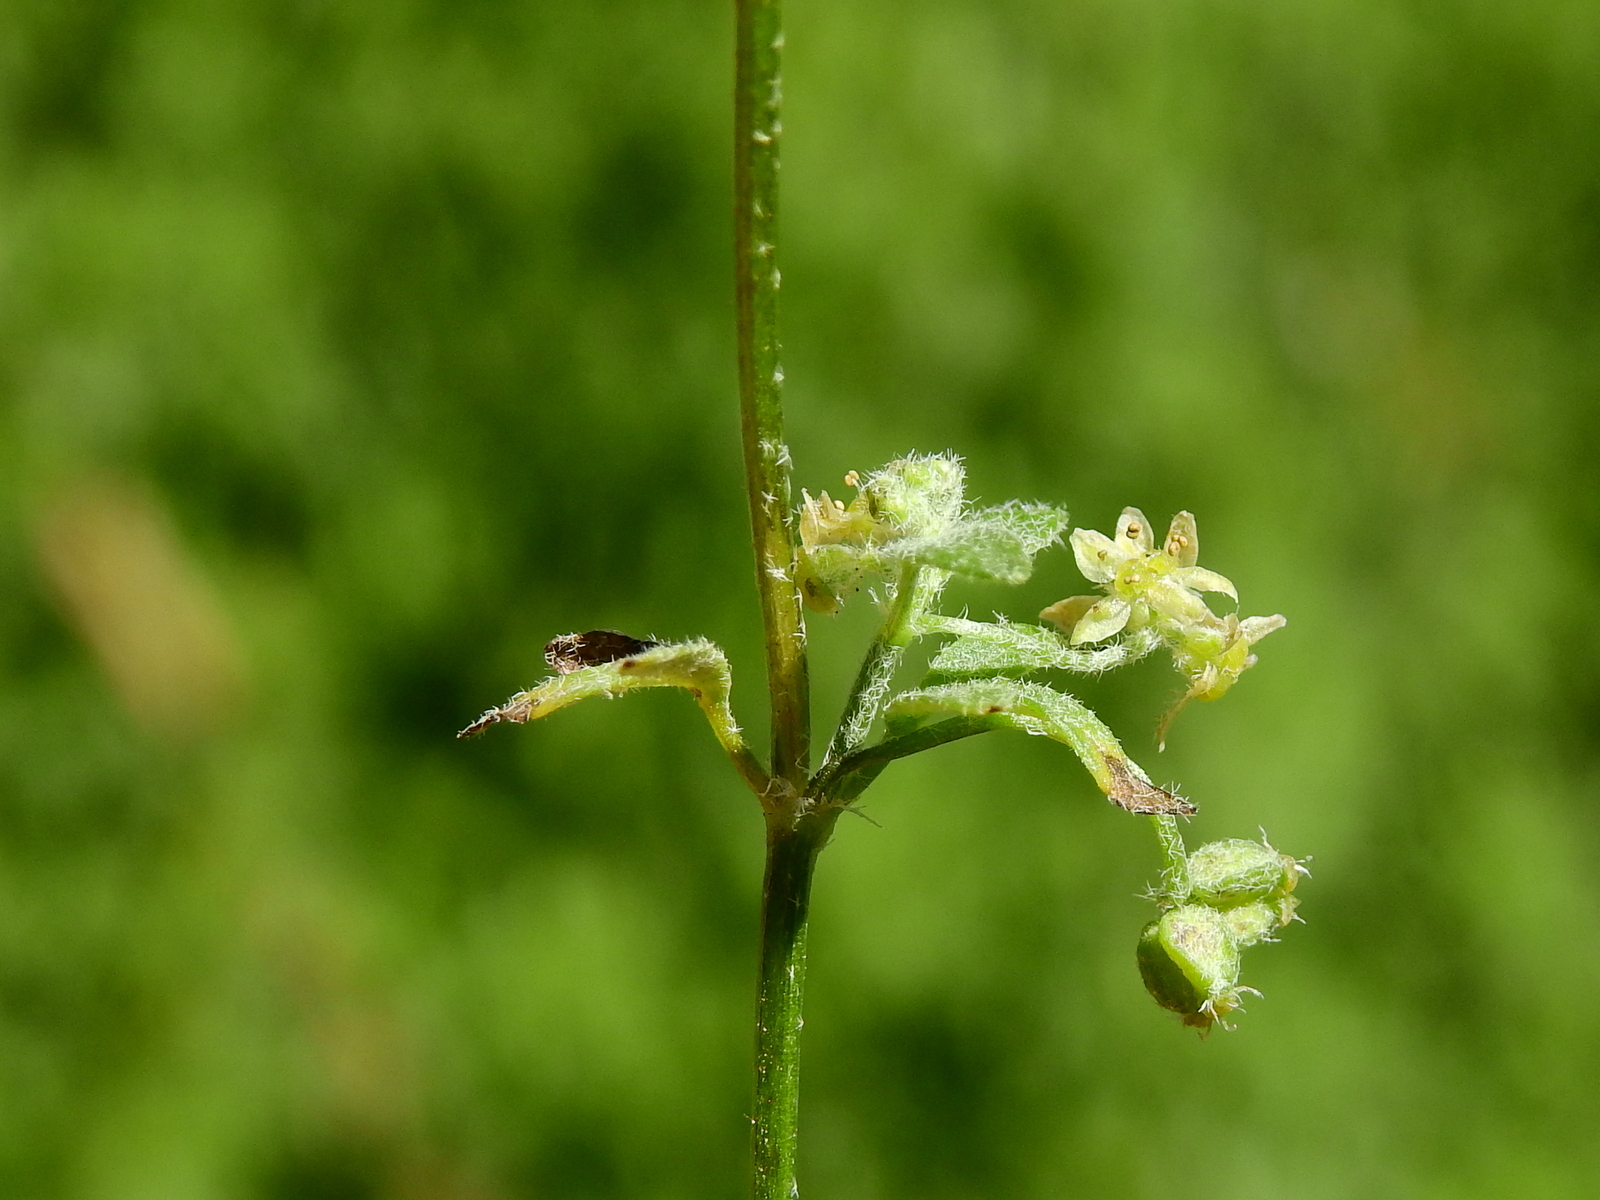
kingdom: Plantae
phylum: Tracheophyta
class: Magnoliopsida
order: Apiales
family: Apiaceae
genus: Bowlesia
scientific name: Bowlesia tropaeolifolia
